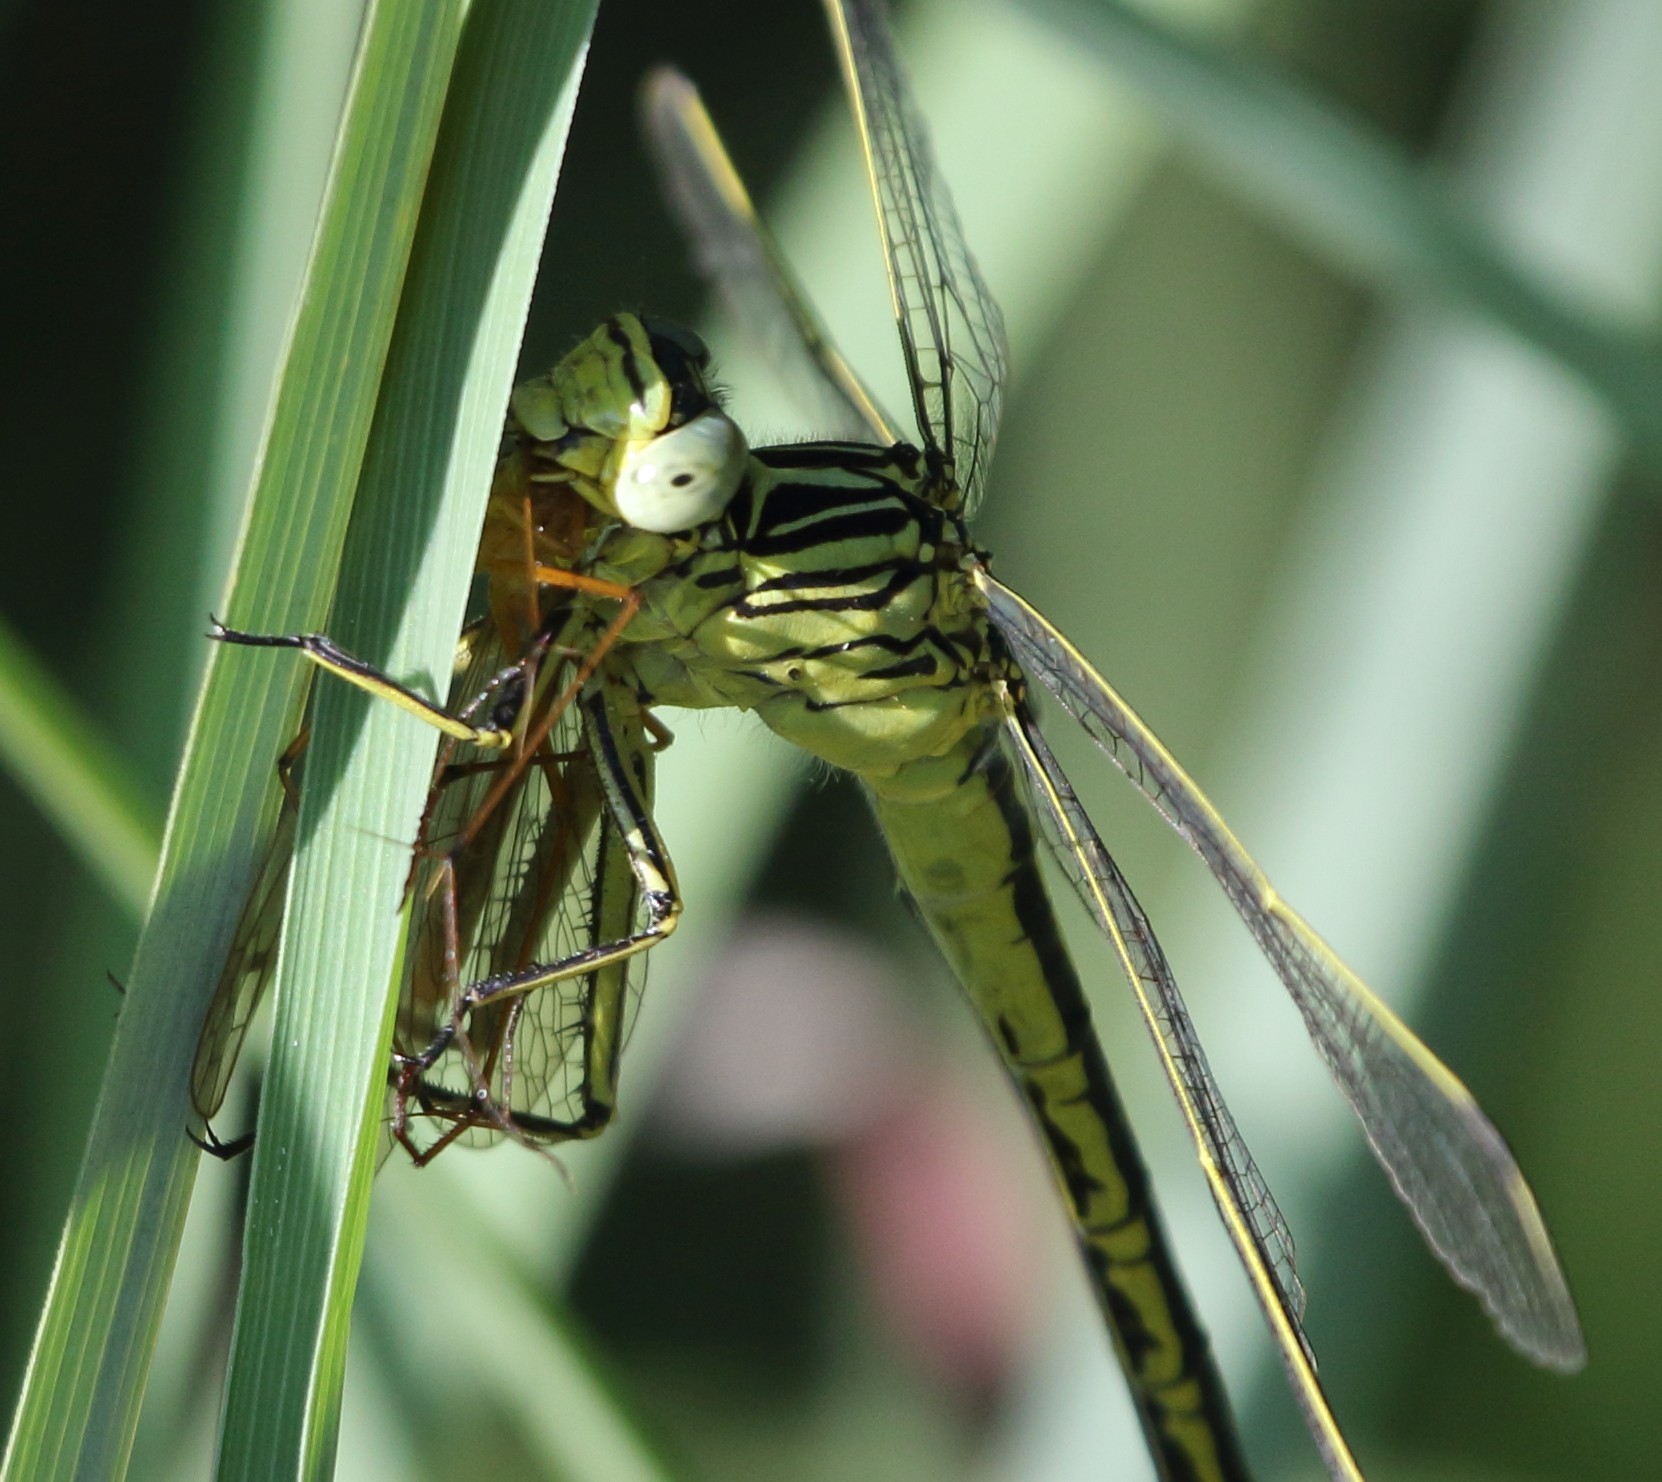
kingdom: Animalia
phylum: Arthropoda
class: Insecta
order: Mecoptera
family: Bittacidae
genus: Bittacus
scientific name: Bittacus
